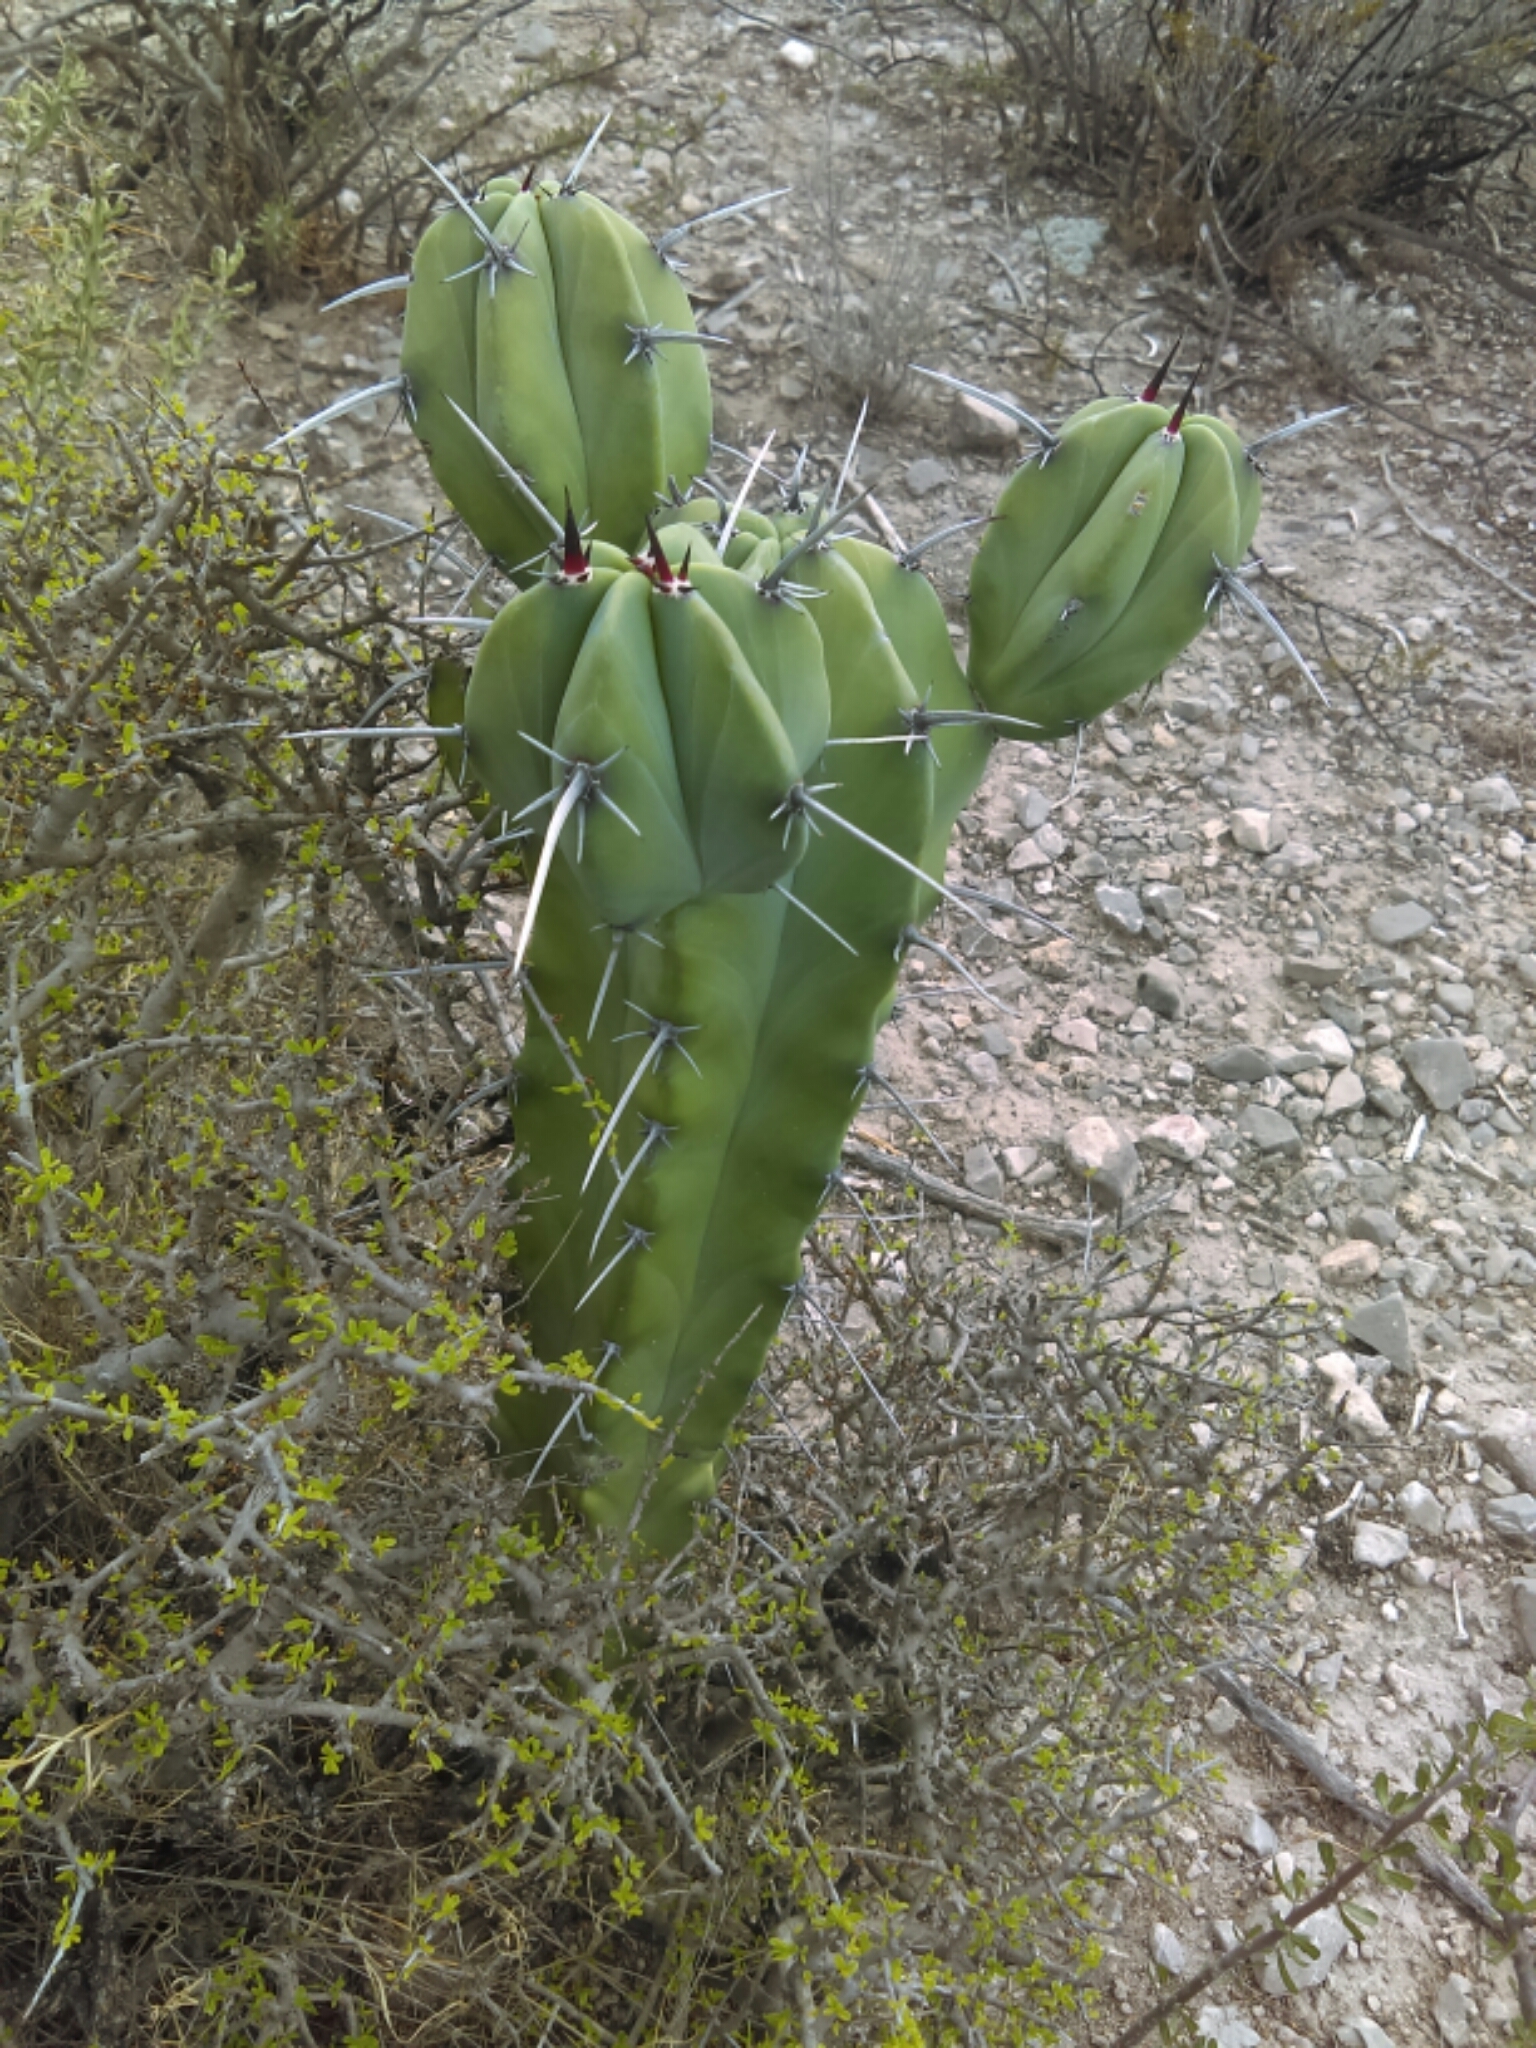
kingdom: Plantae
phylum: Tracheophyta
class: Magnoliopsida
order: Caryophyllales
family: Cactaceae
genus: Myrtillocactus
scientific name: Myrtillocactus geometrizans
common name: Bilberry cactus
